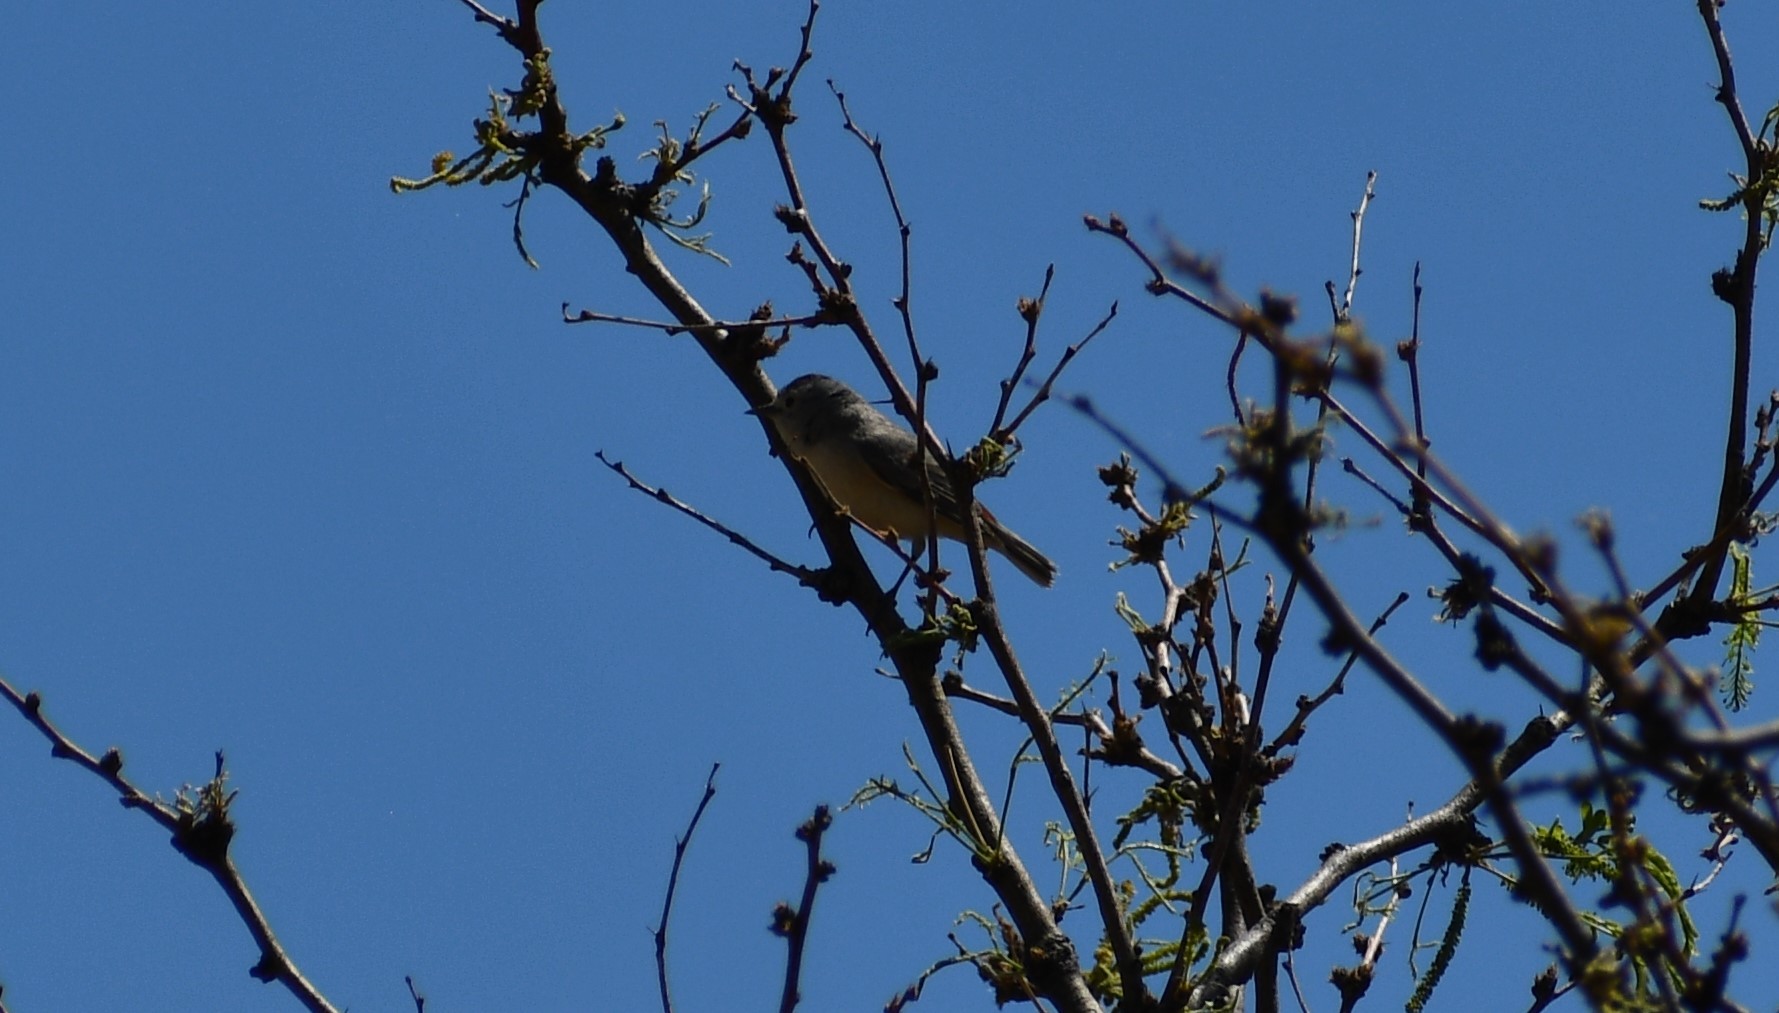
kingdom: Animalia
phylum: Chordata
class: Aves
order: Passeriformes
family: Parulidae
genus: Leiothlypis
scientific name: Leiothlypis luciae
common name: Lucy's warbler
